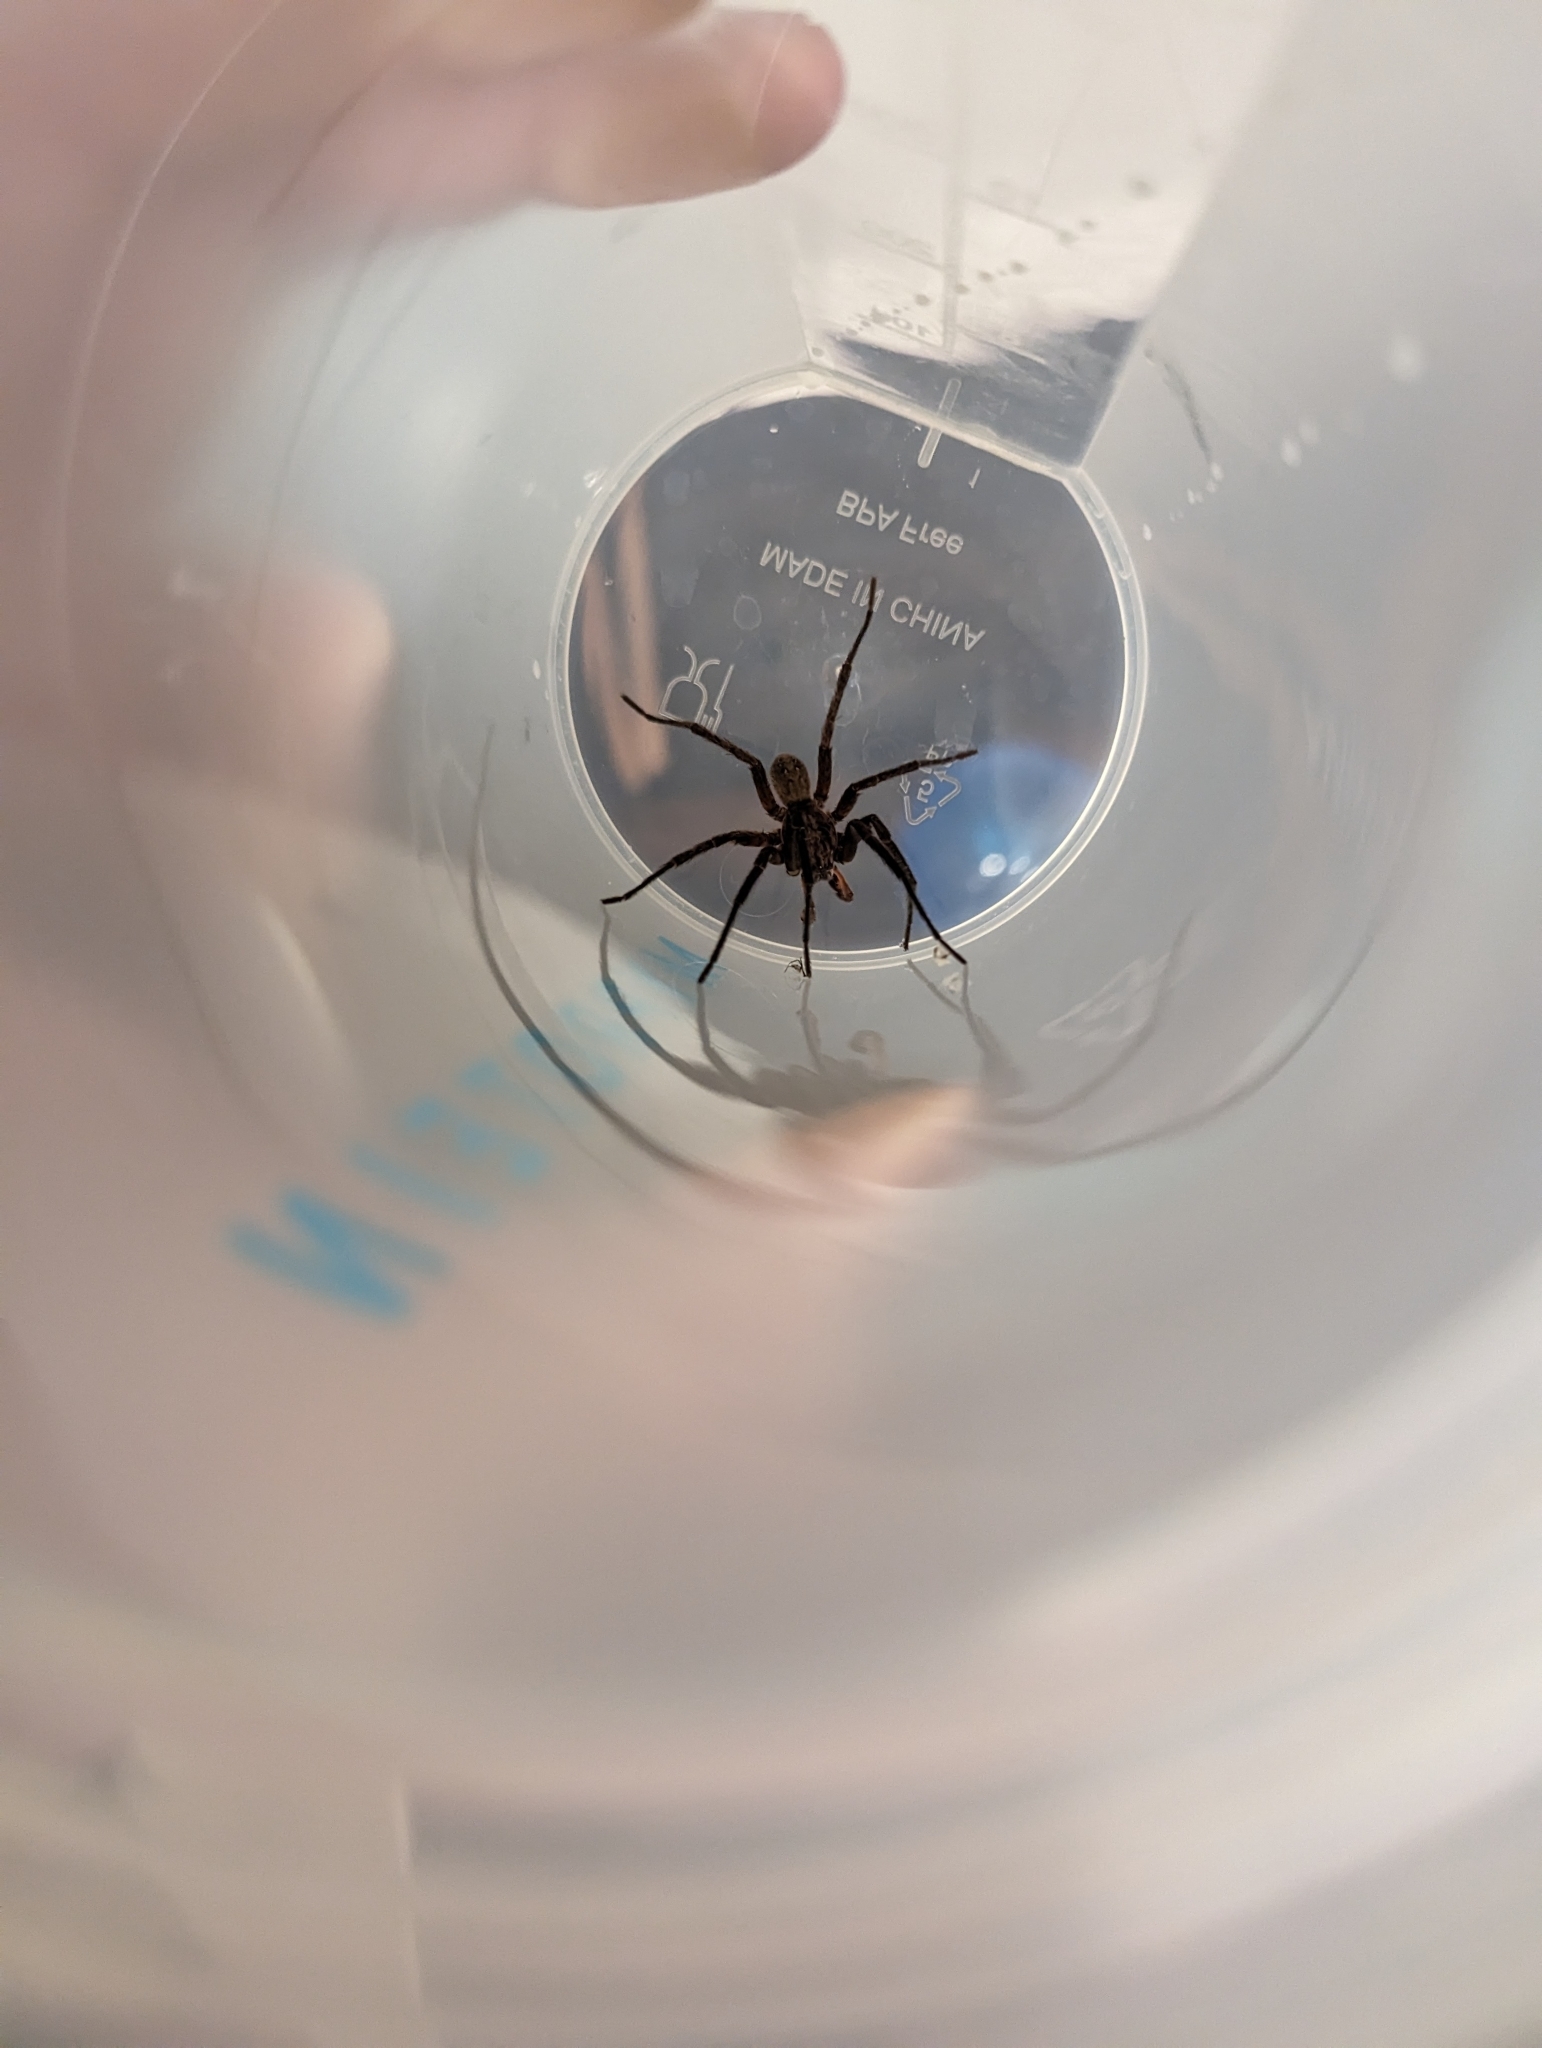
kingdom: Animalia
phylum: Arthropoda
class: Arachnida
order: Araneae
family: Zoropsidae
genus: Uliodon
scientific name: Uliodon albopunctatus
